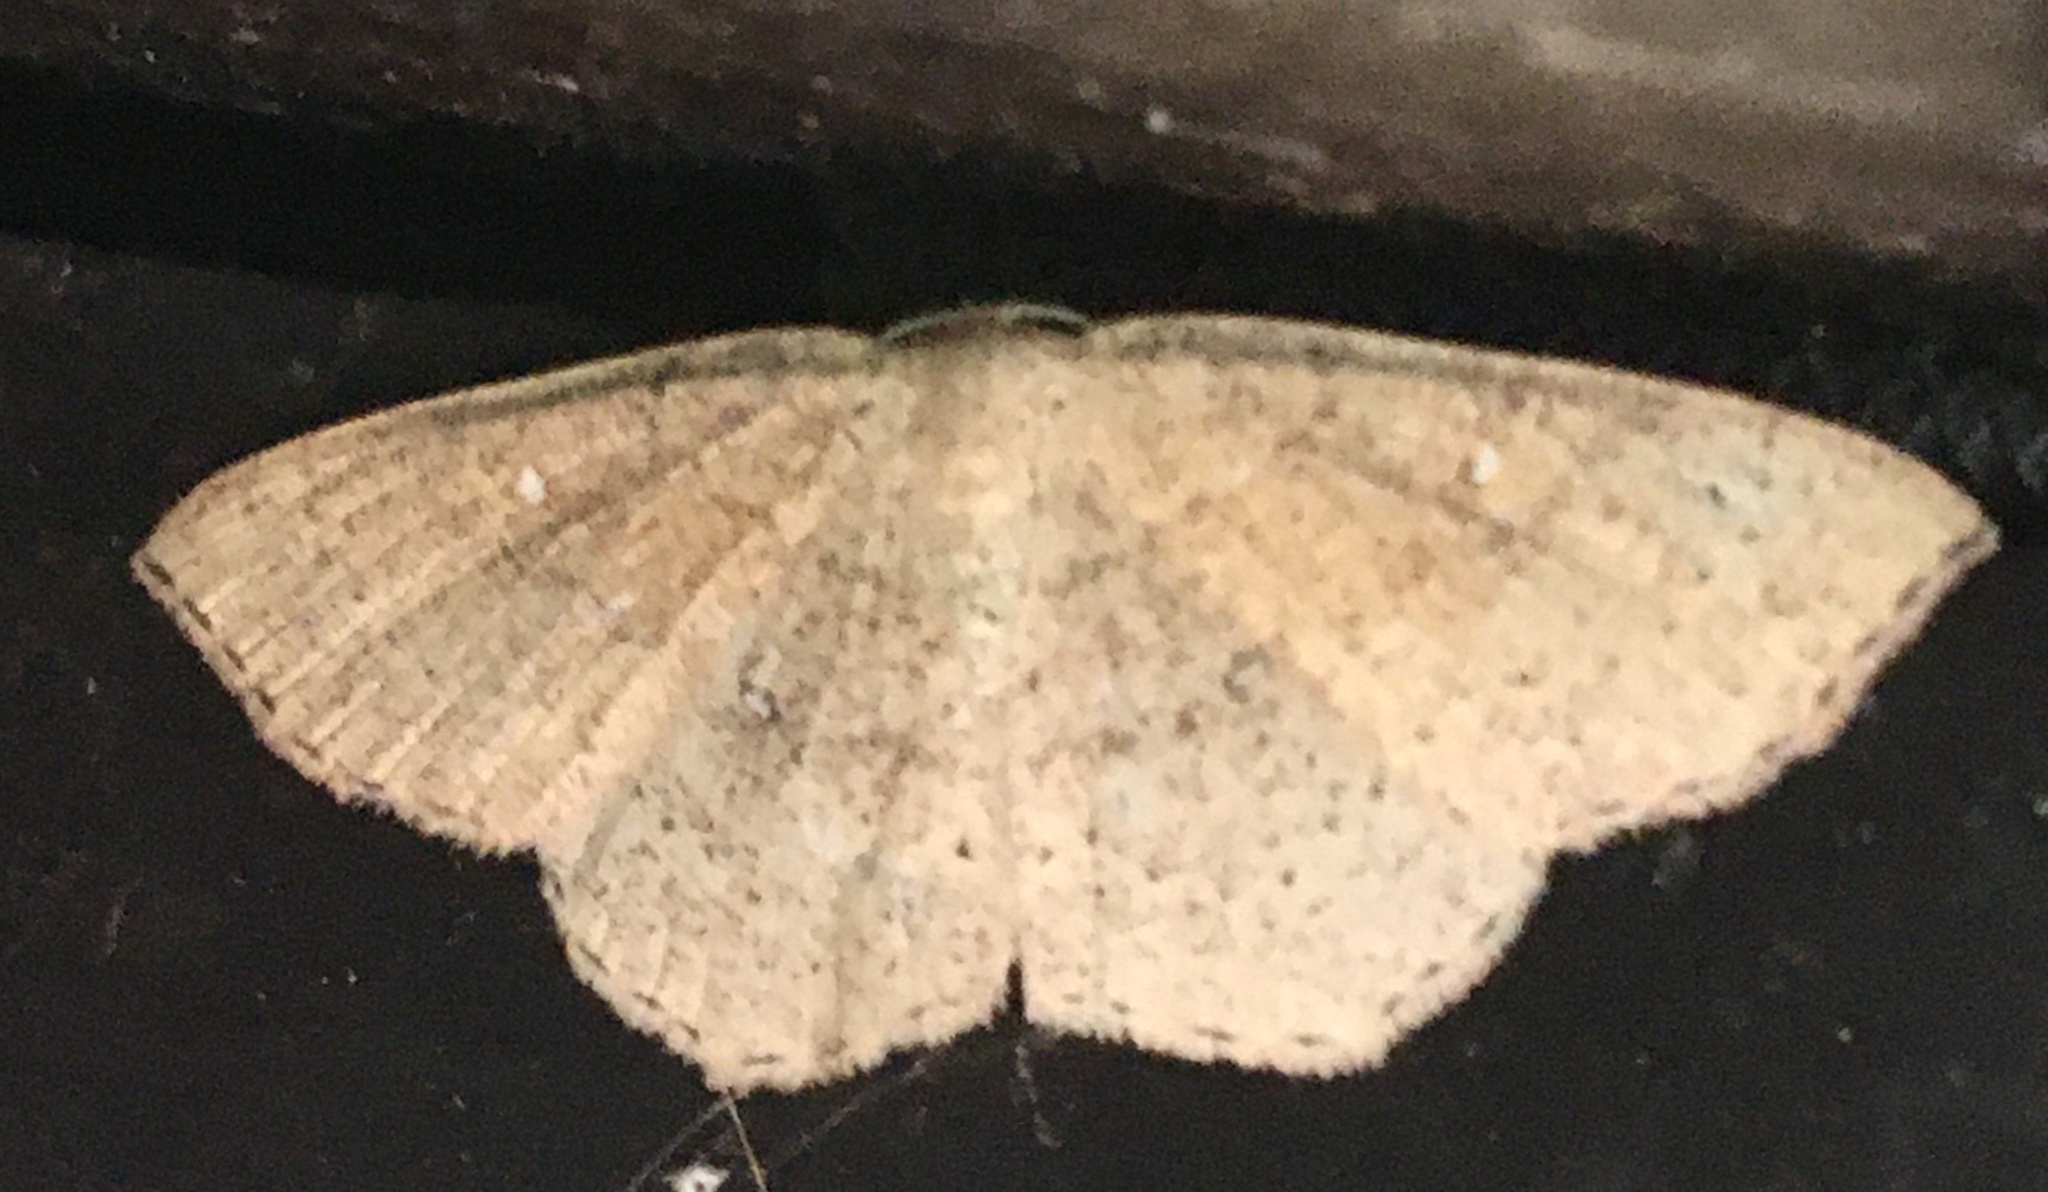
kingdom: Animalia
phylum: Arthropoda
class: Insecta
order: Lepidoptera
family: Geometridae
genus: Cyclophora
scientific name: Cyclophora ruficiliaria
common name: Jersey mocha
